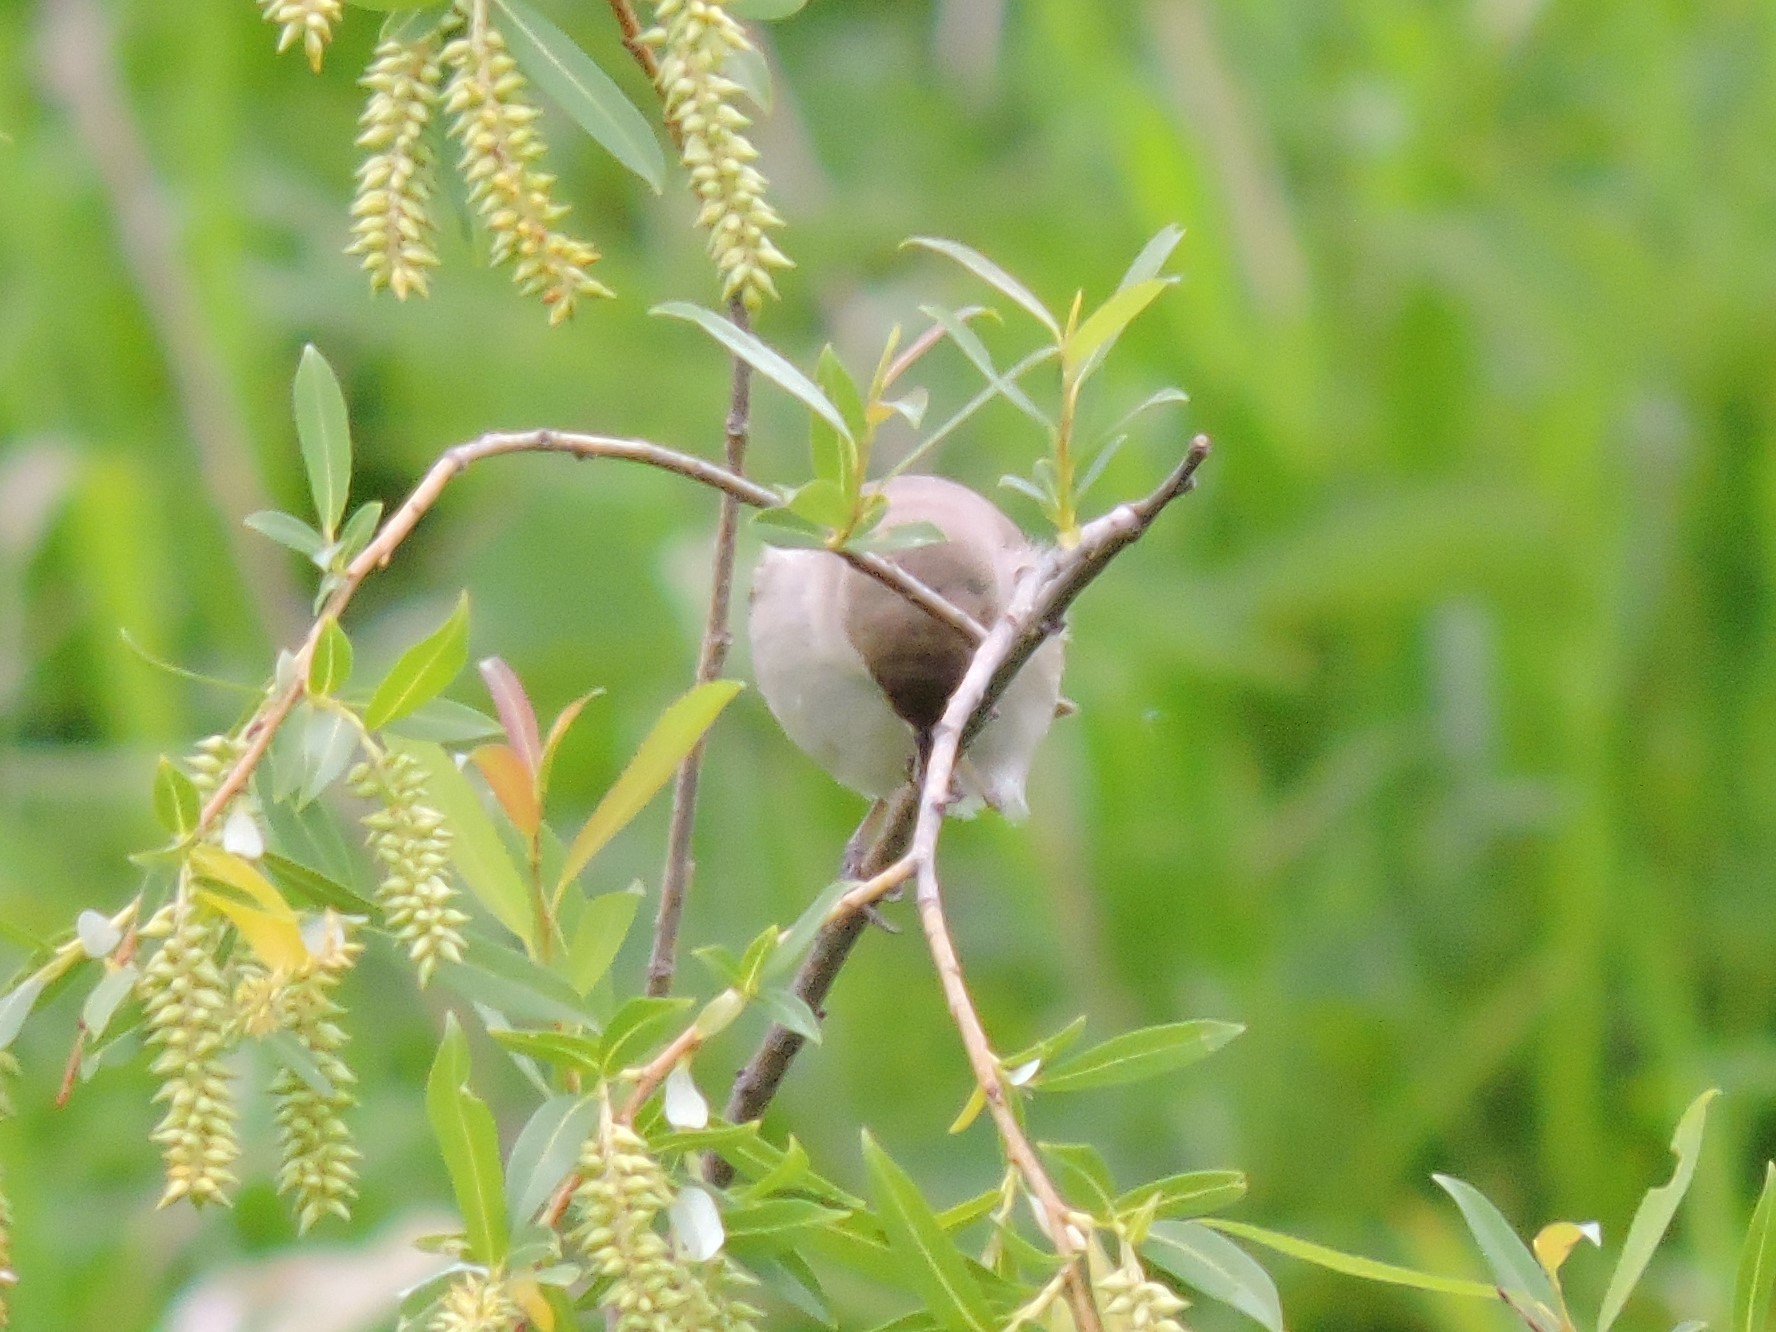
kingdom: Animalia
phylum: Chordata
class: Aves
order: Passeriformes
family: Acrocephalidae
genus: Iduna
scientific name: Iduna caligata
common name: Booted warbler
